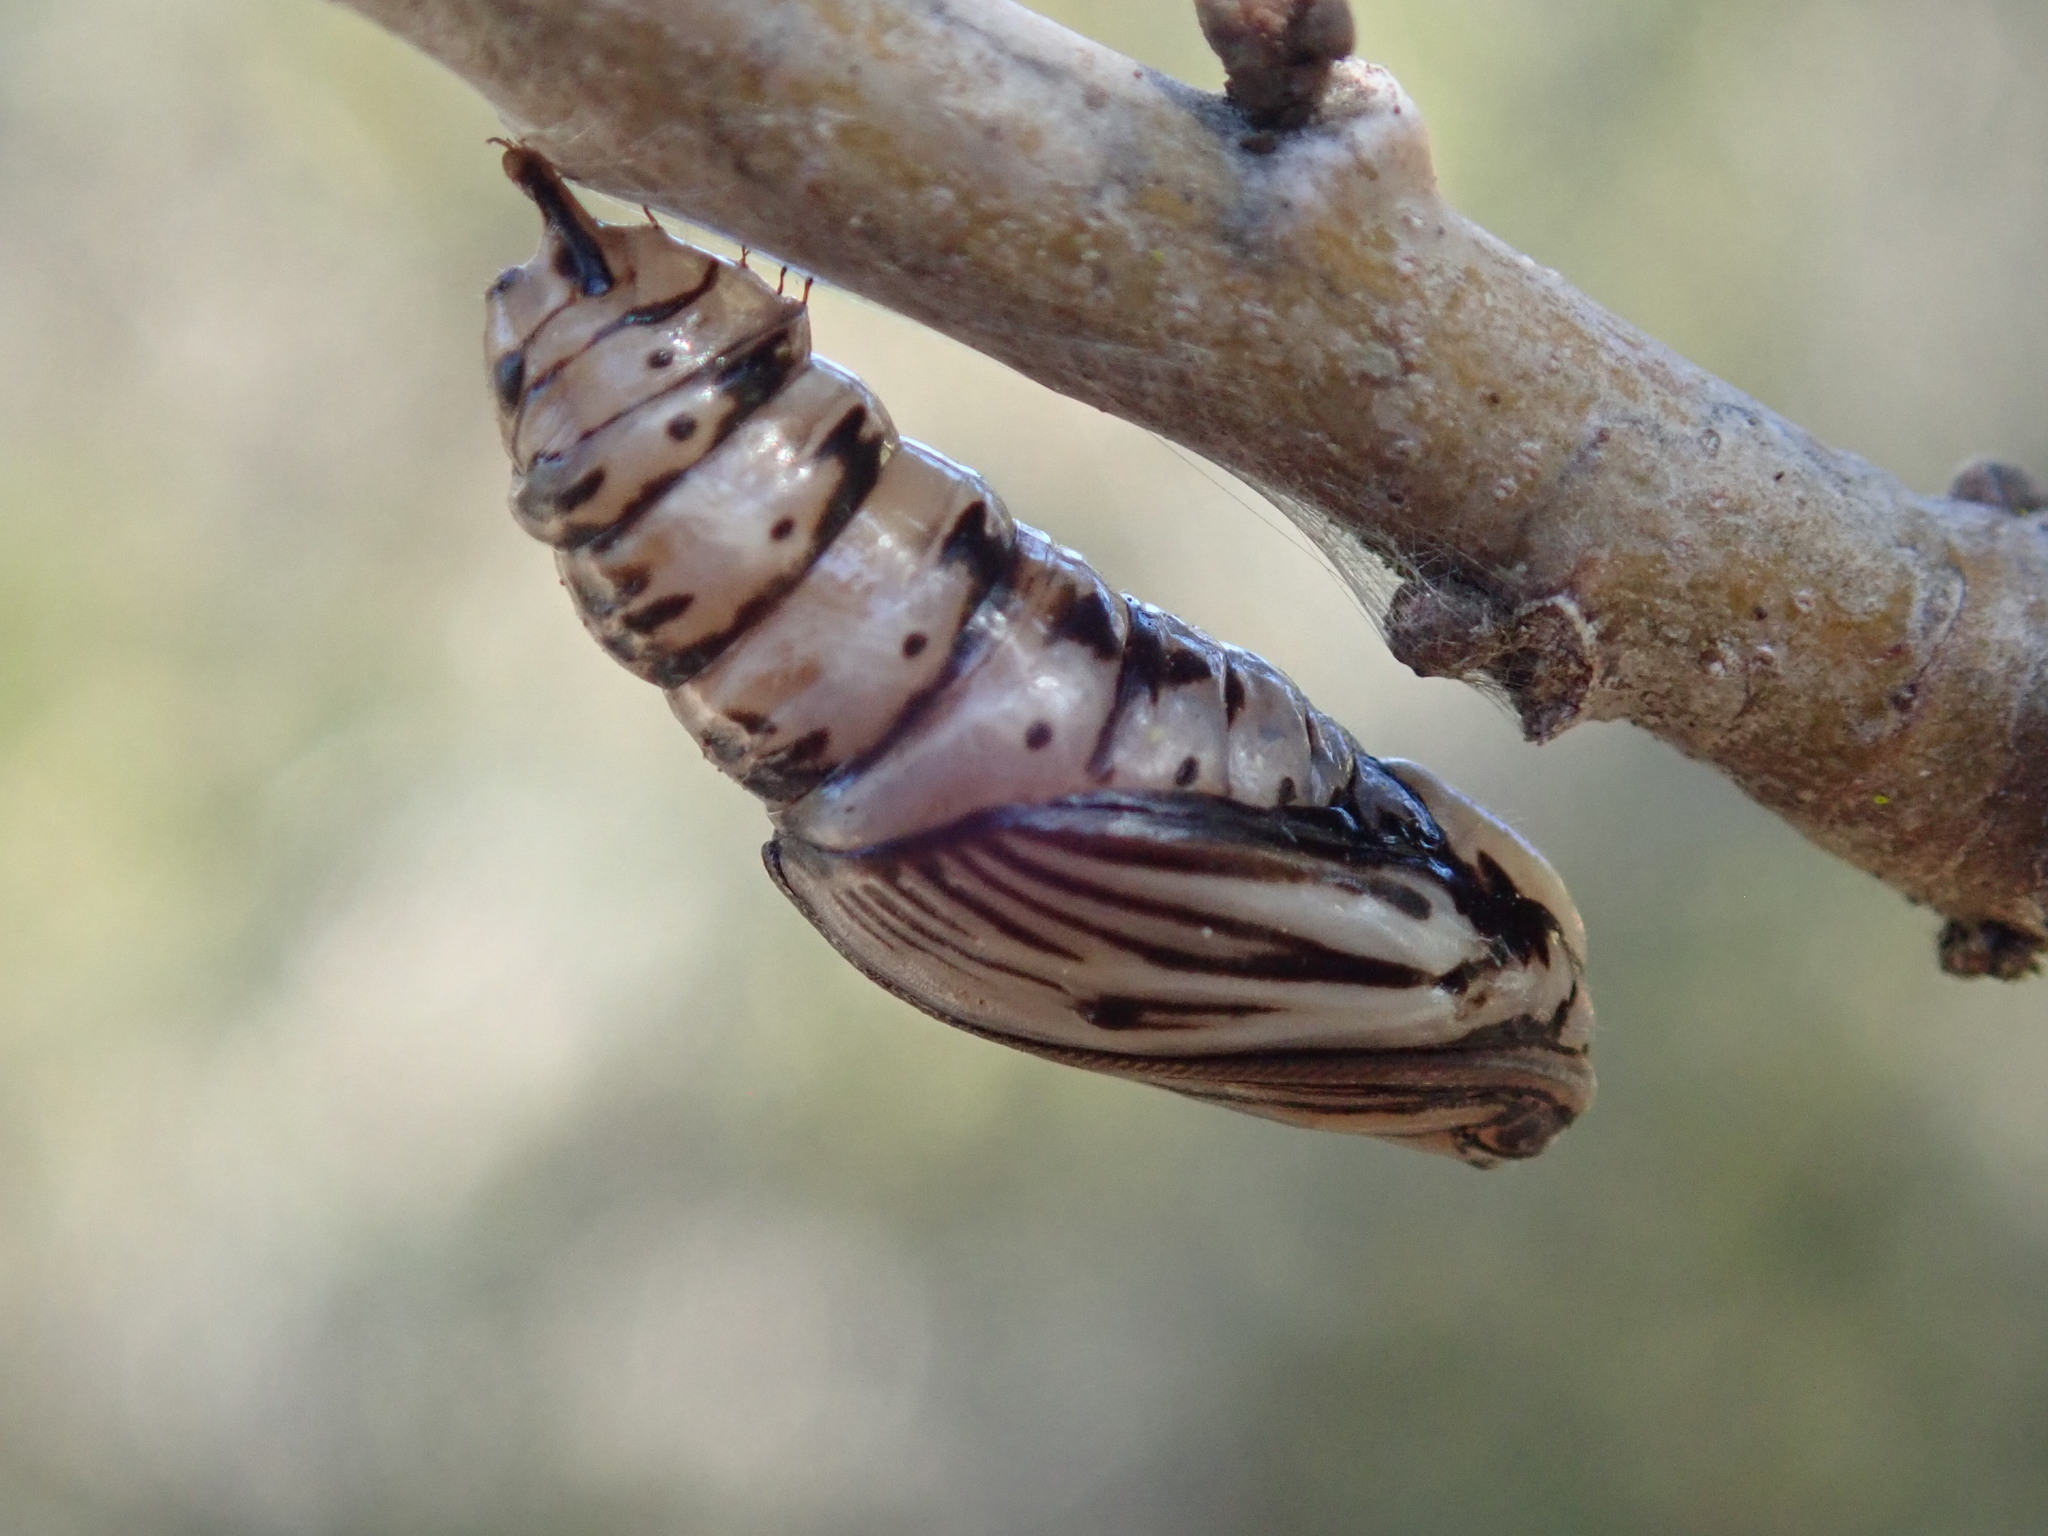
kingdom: Animalia
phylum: Arthropoda
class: Insecta
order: Lepidoptera
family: Notodontidae
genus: Phryganidia
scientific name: Phryganidia californica
